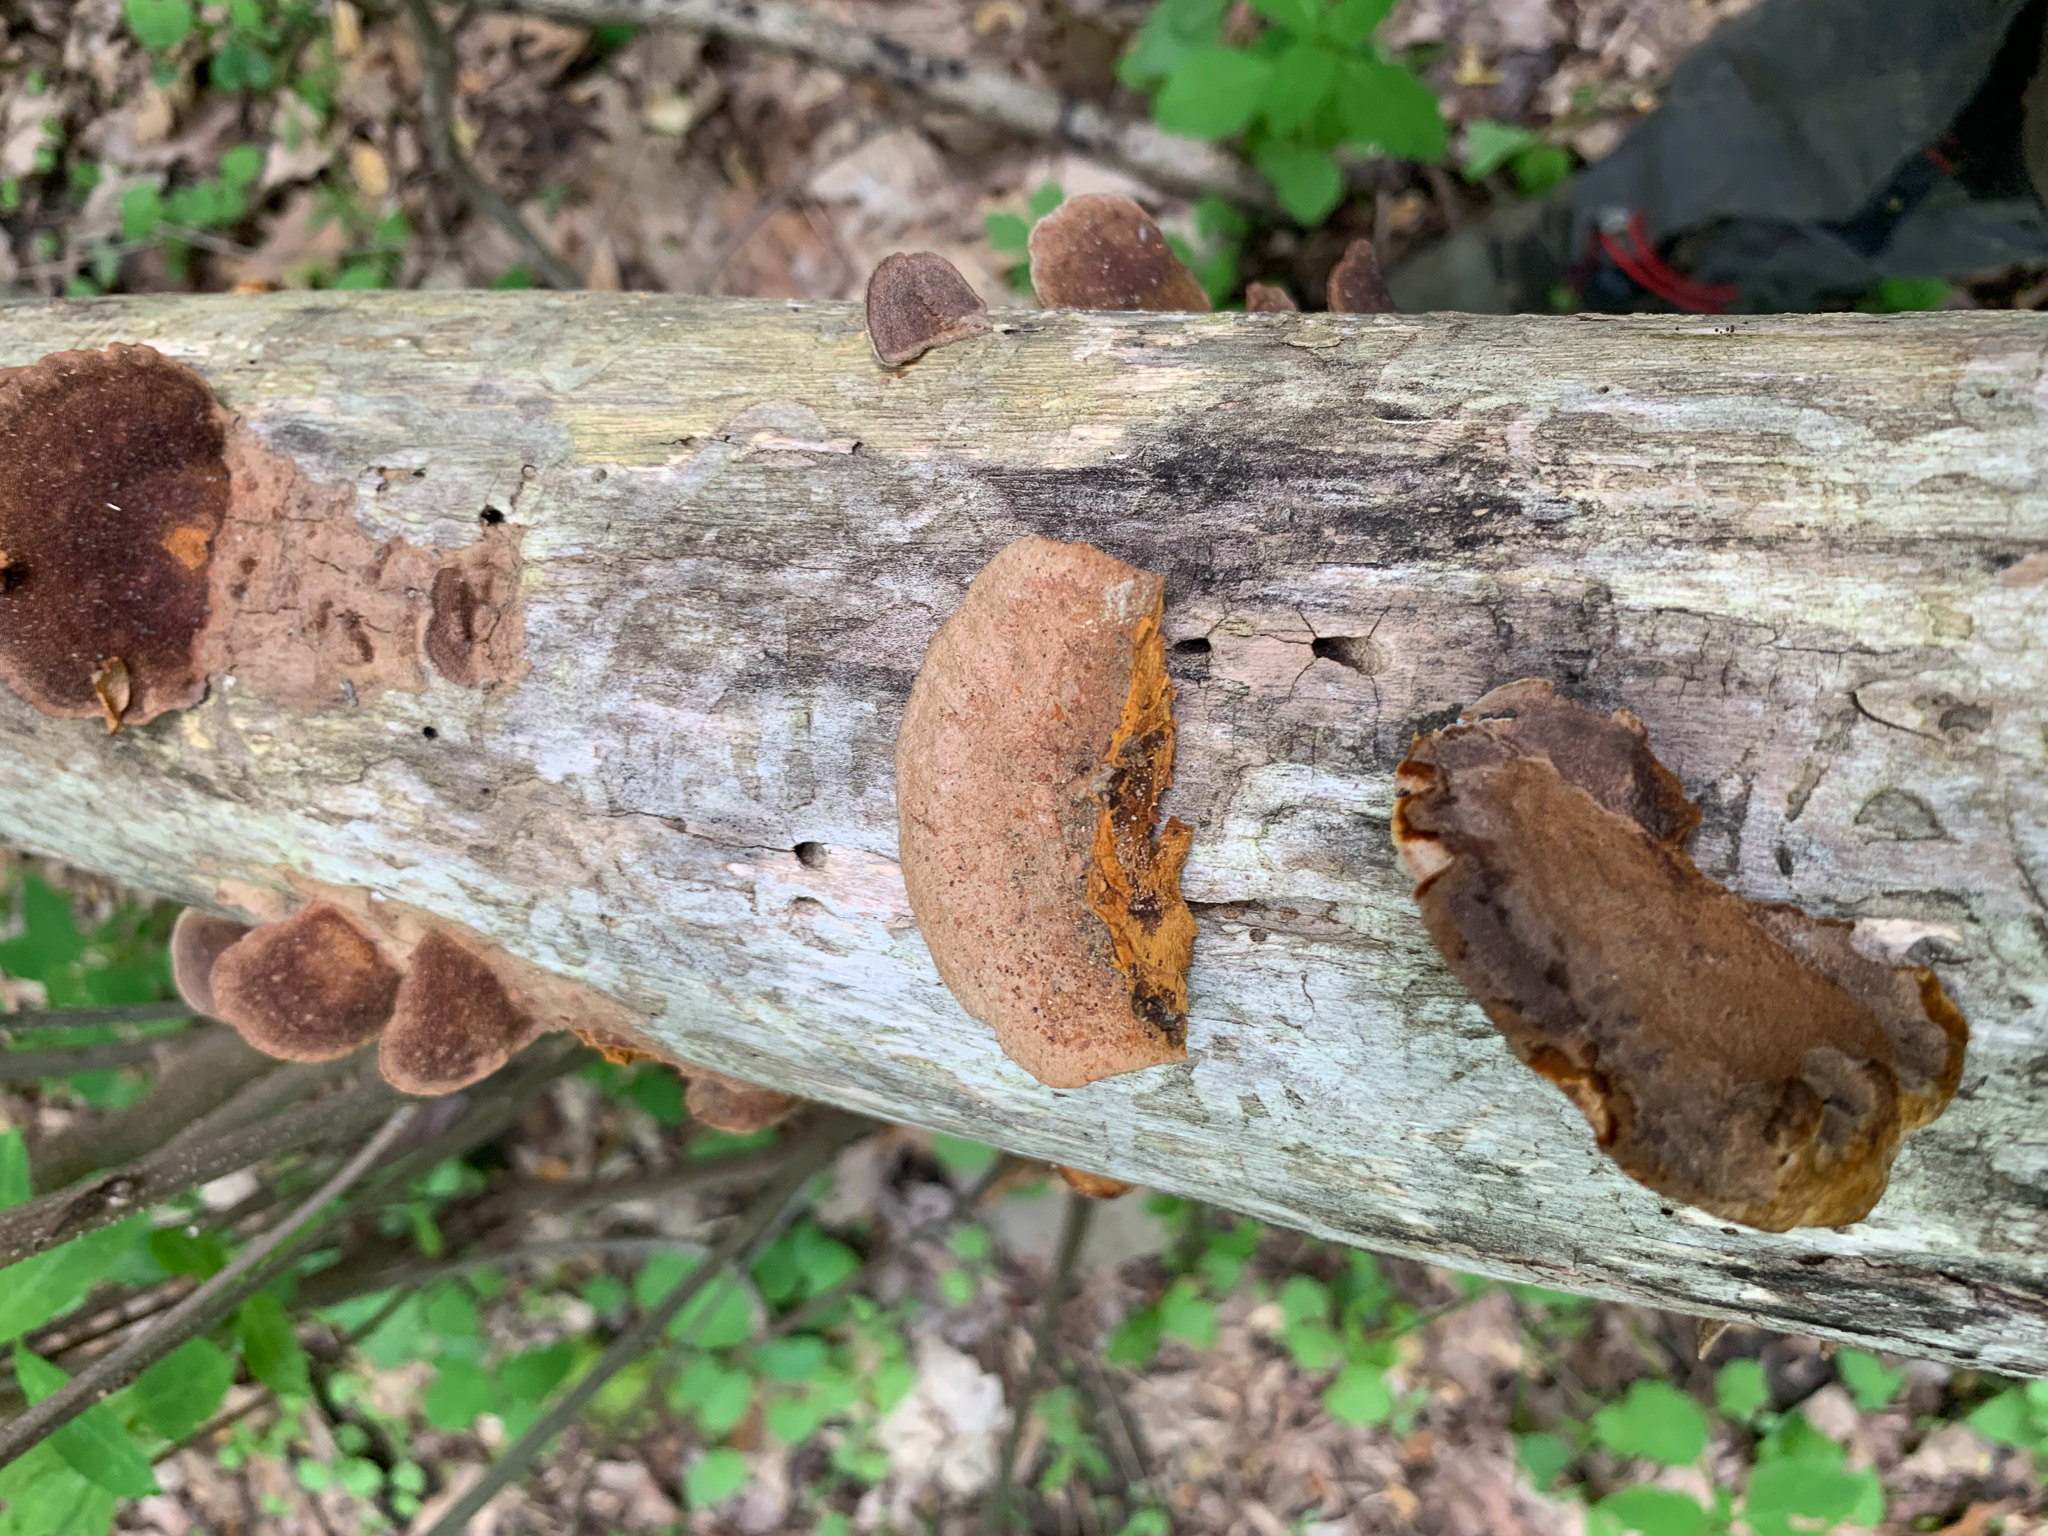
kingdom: Fungi
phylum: Basidiomycota
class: Agaricomycetes
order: Hymenochaetales
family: Hymenochaetaceae
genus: Phellinus
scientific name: Phellinus gilvus
